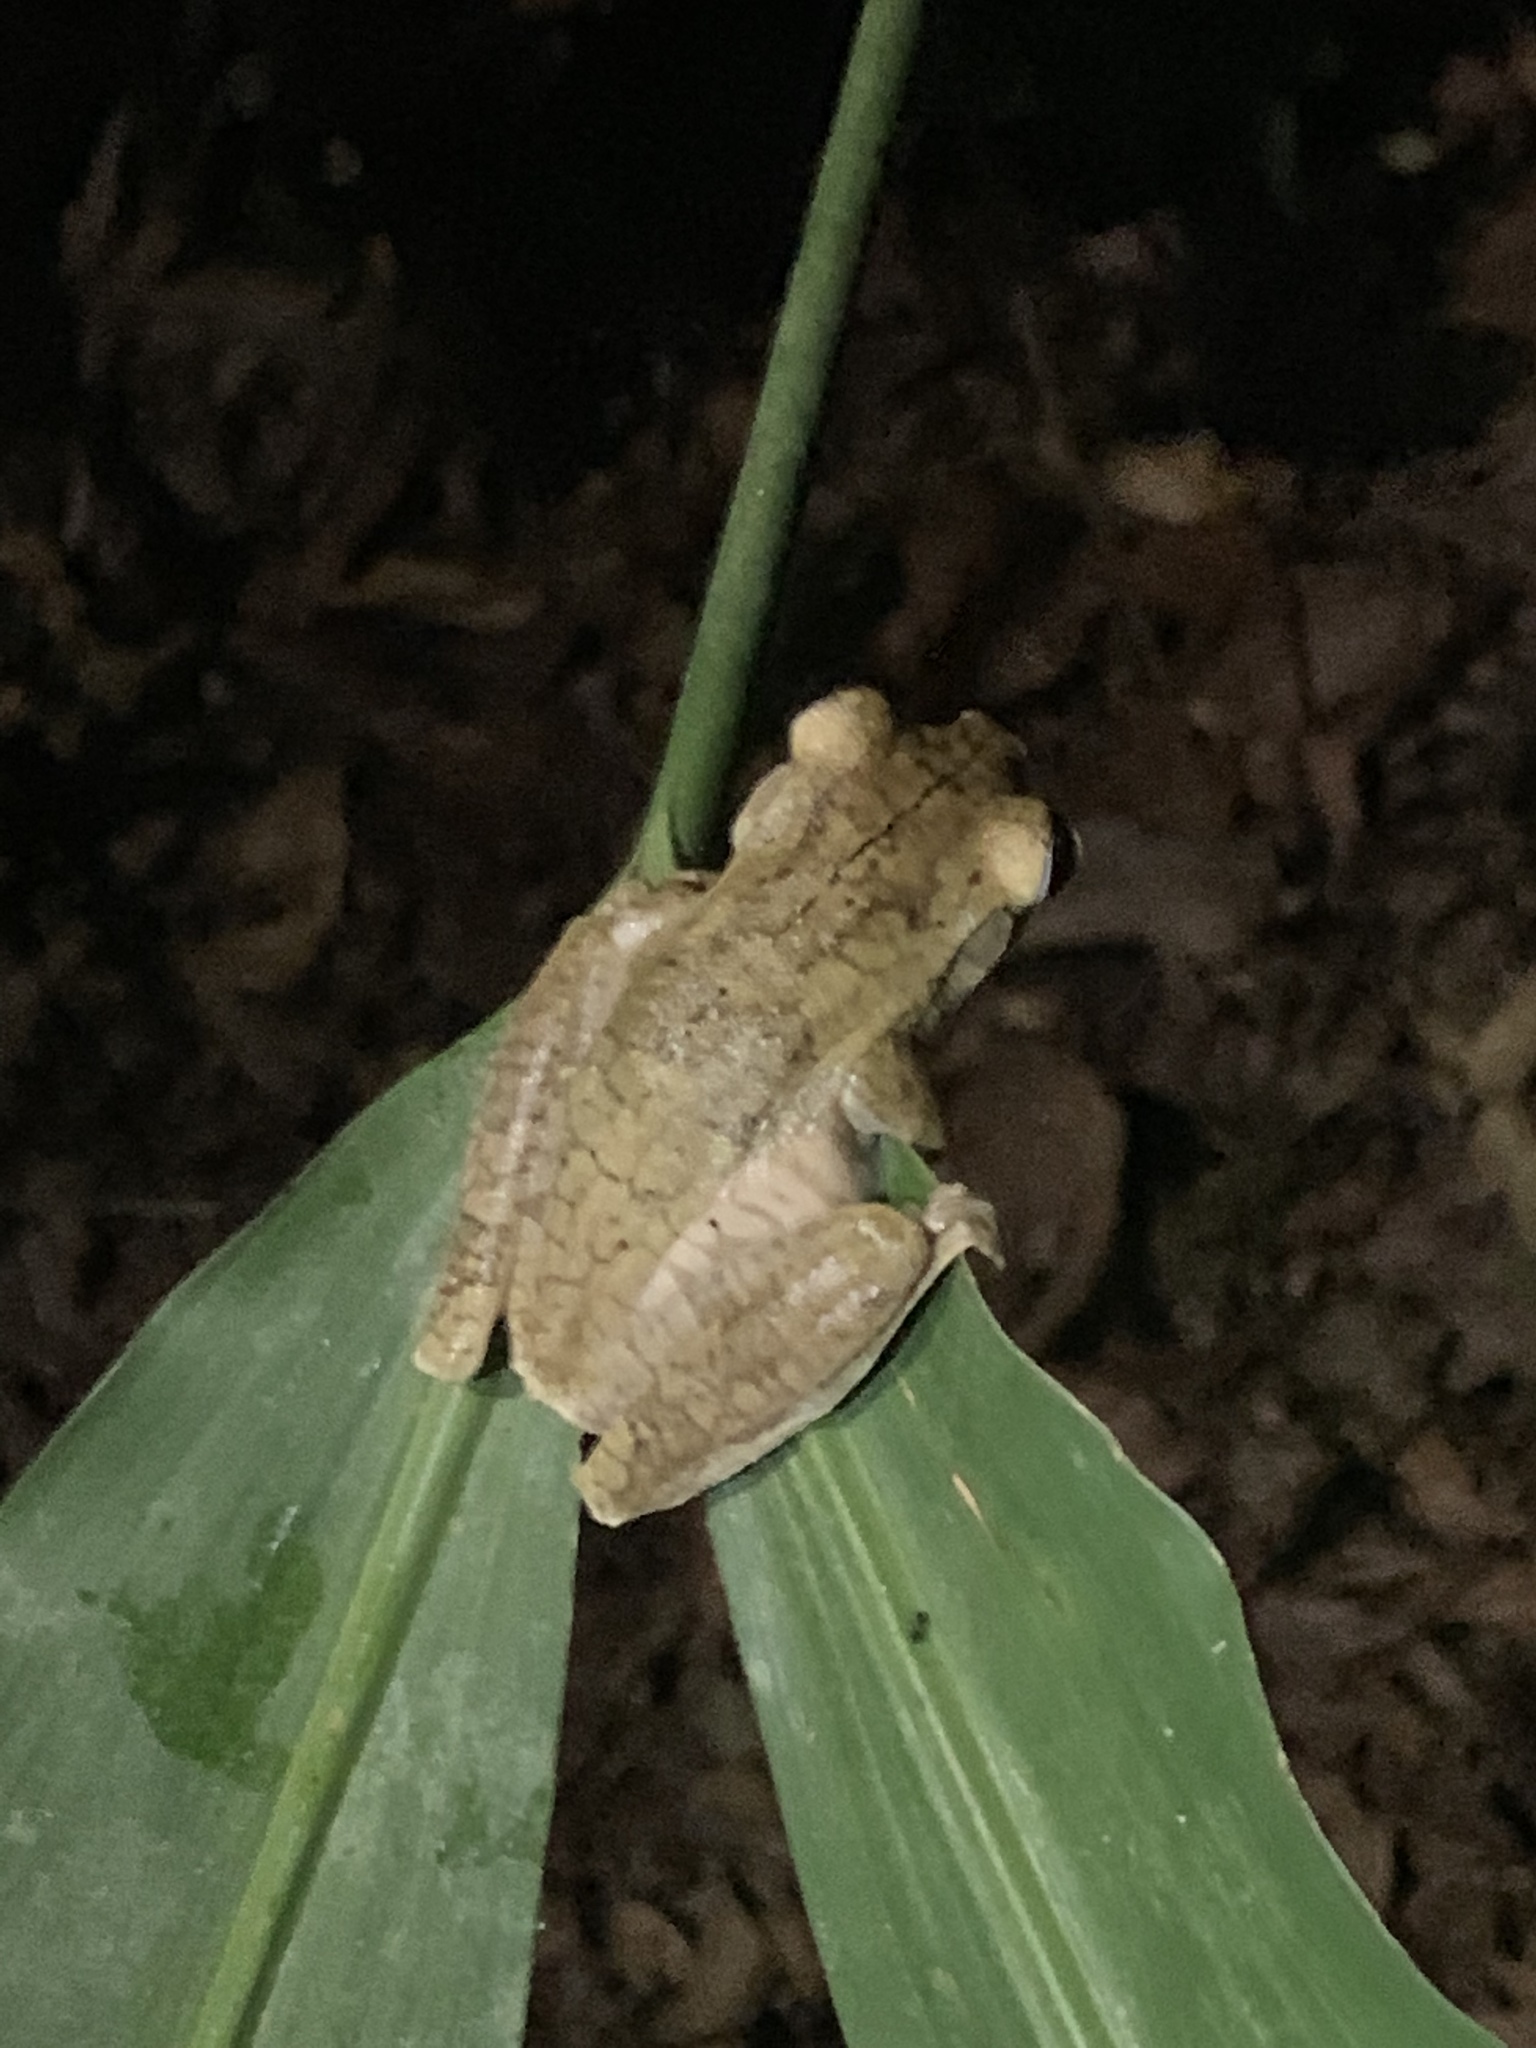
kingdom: Animalia
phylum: Chordata
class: Amphibia
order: Anura
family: Hylidae
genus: Boana
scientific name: Boana rosenbergi
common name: Rosenberg´s gladiator treefrog
